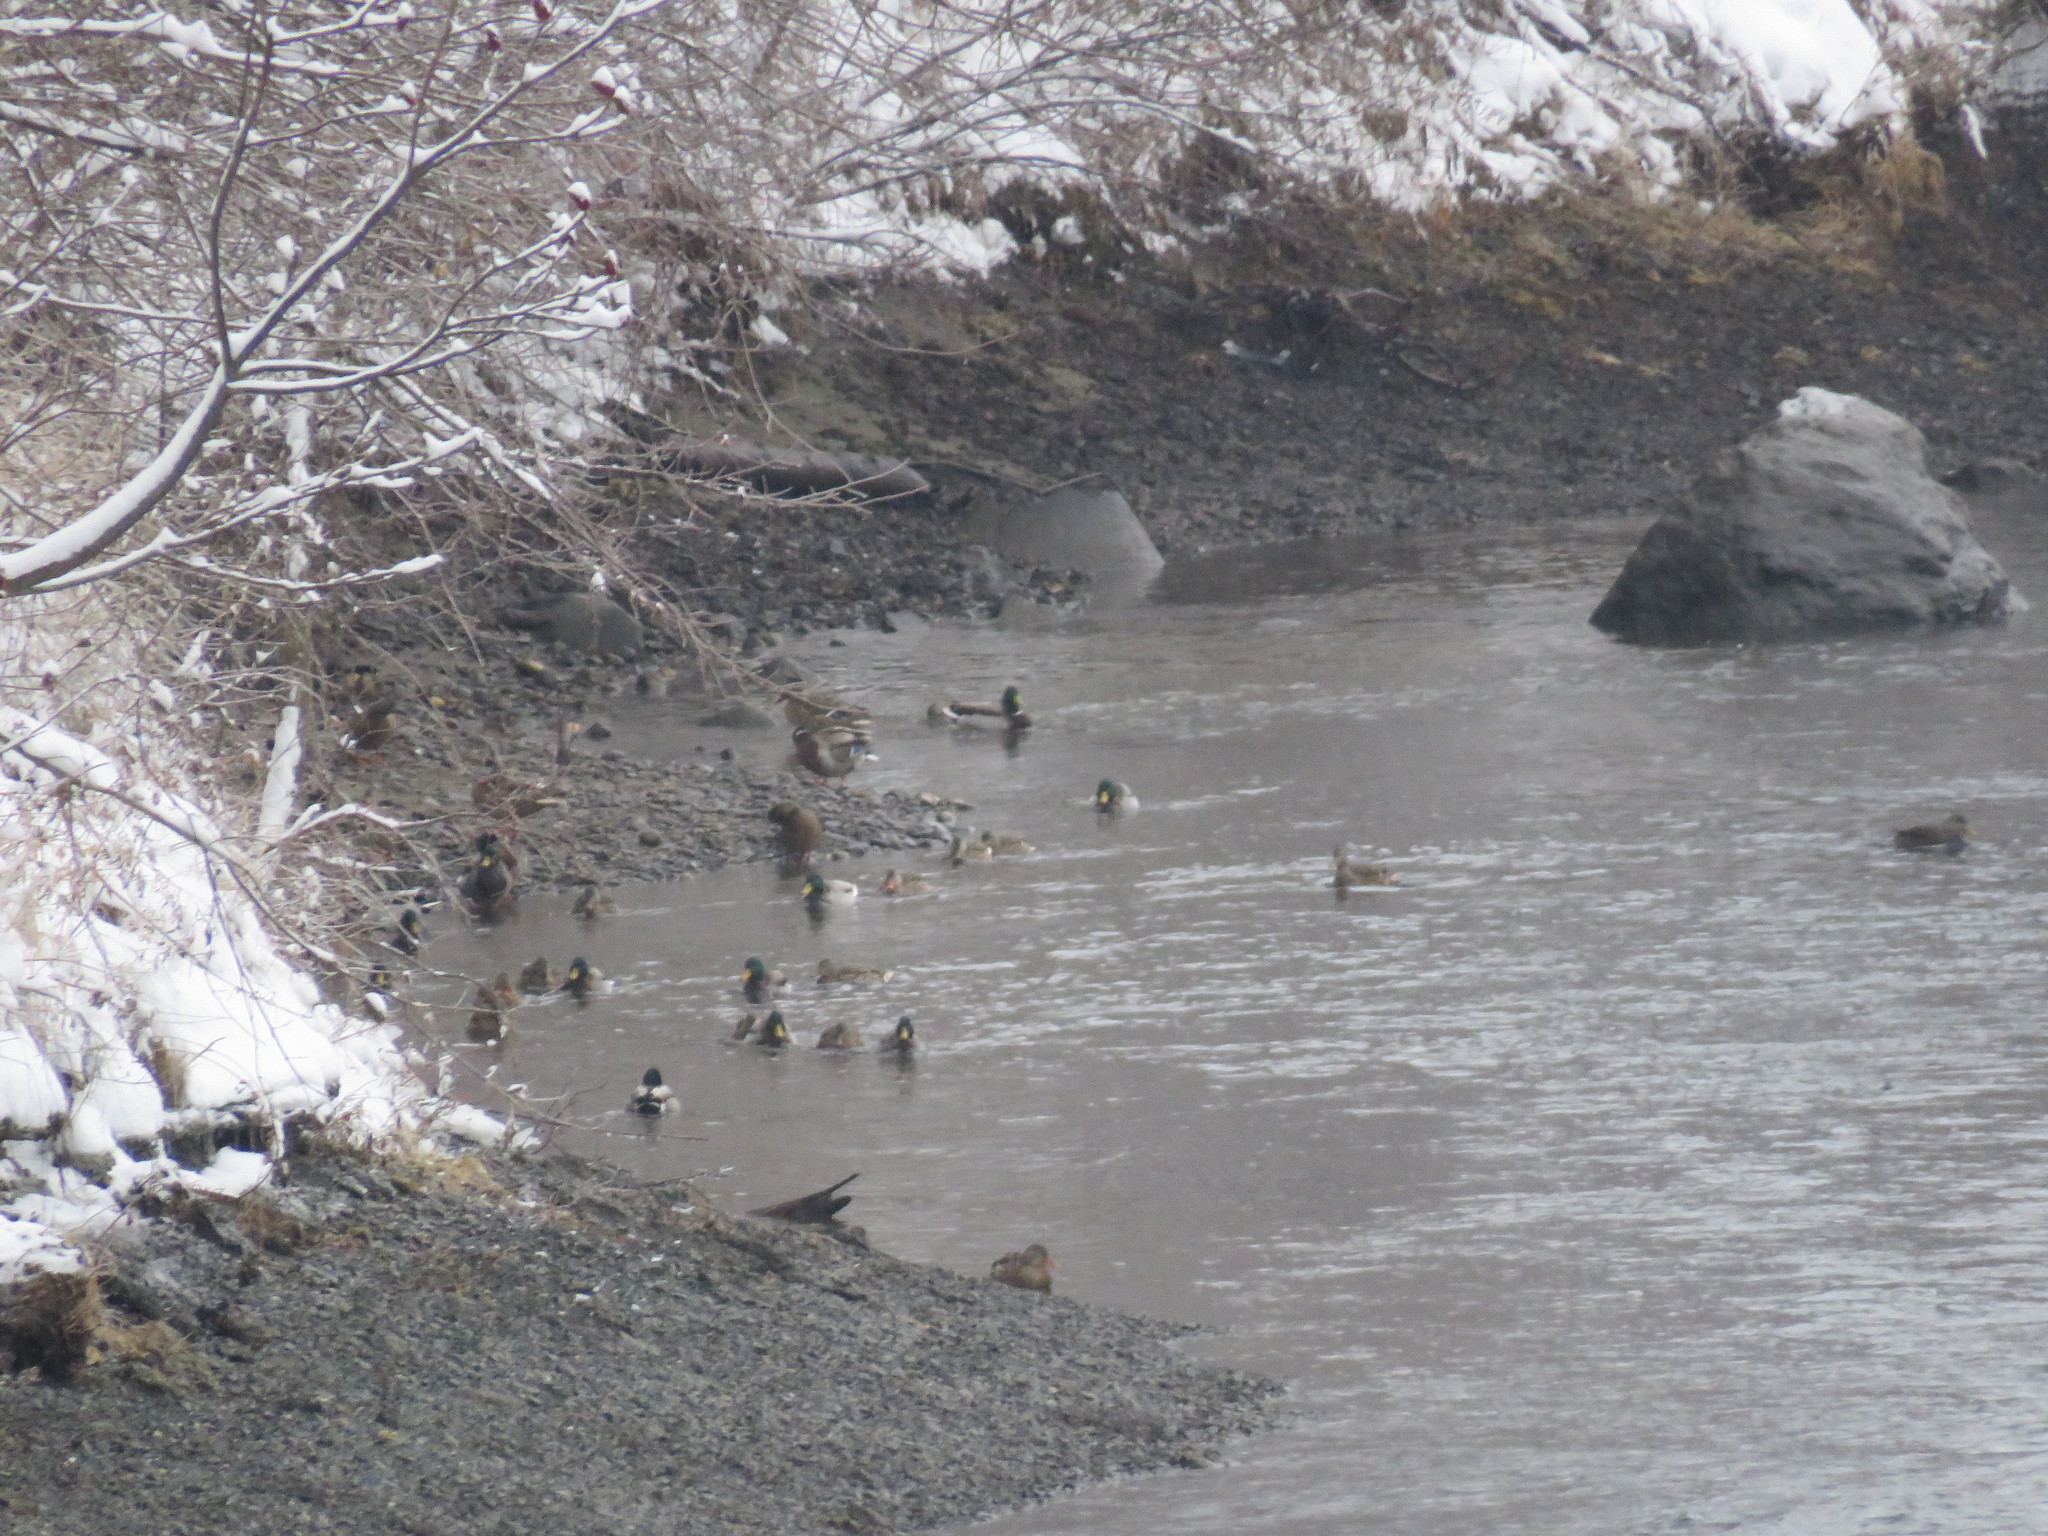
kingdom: Animalia
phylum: Chordata
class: Aves
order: Anseriformes
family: Anatidae
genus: Anas
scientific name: Anas platyrhynchos
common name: Mallard
